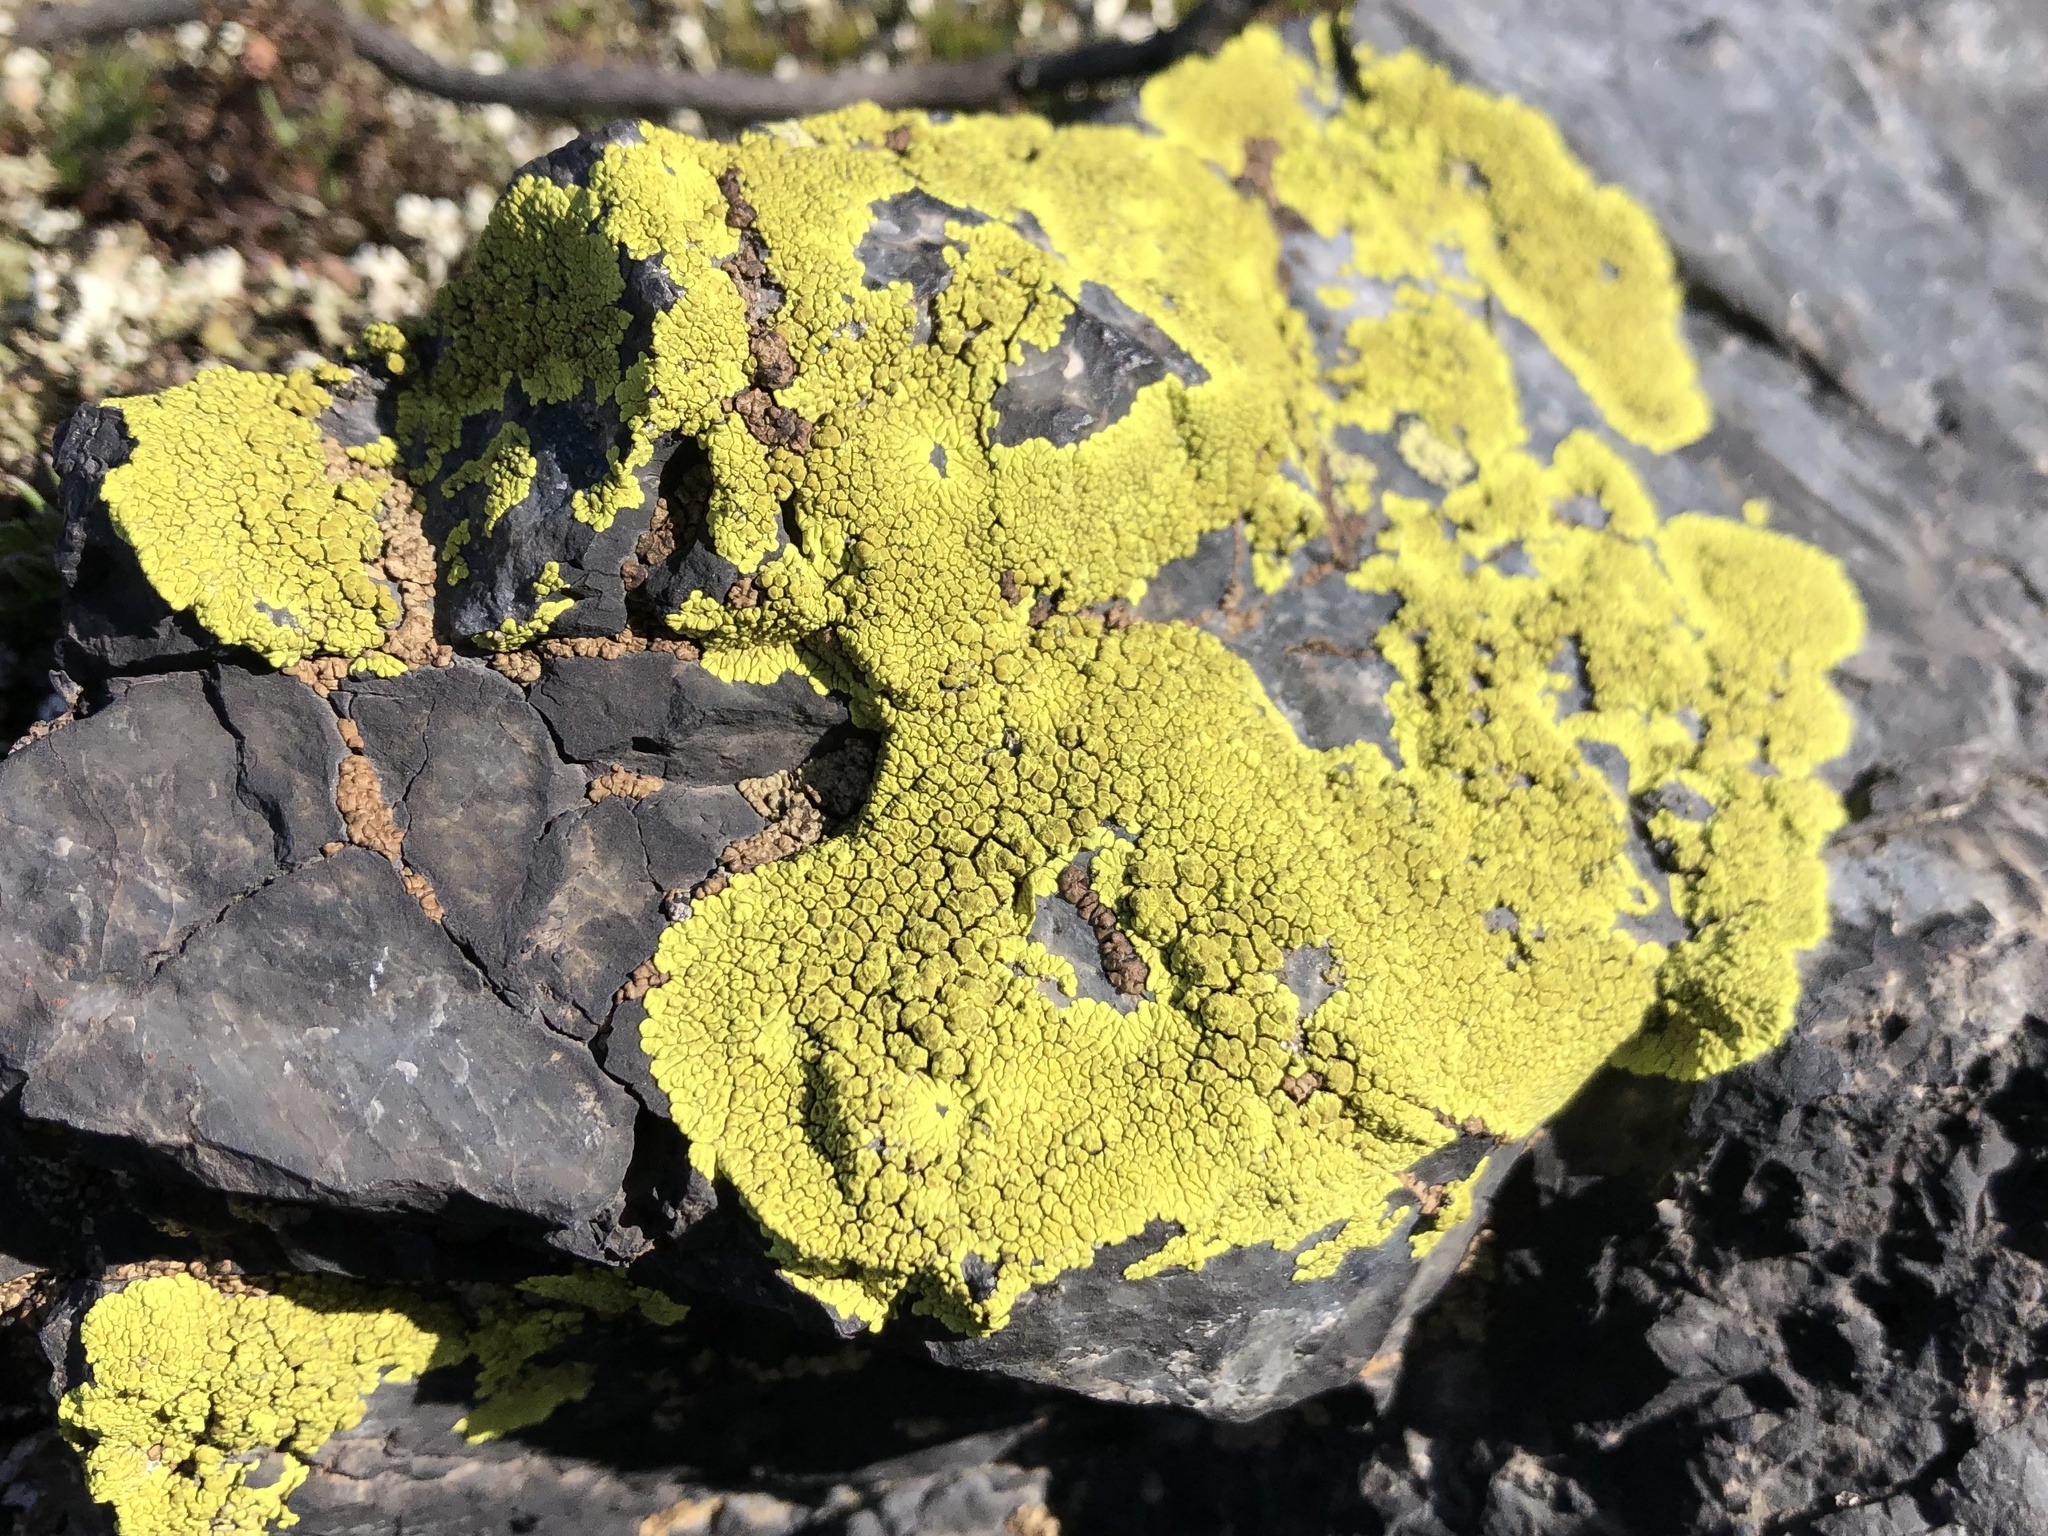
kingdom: Fungi
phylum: Ascomycota
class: Lecanoromycetes
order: Acarosporales
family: Acarosporaceae
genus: Pleopsidium
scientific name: Pleopsidium oxytonum
